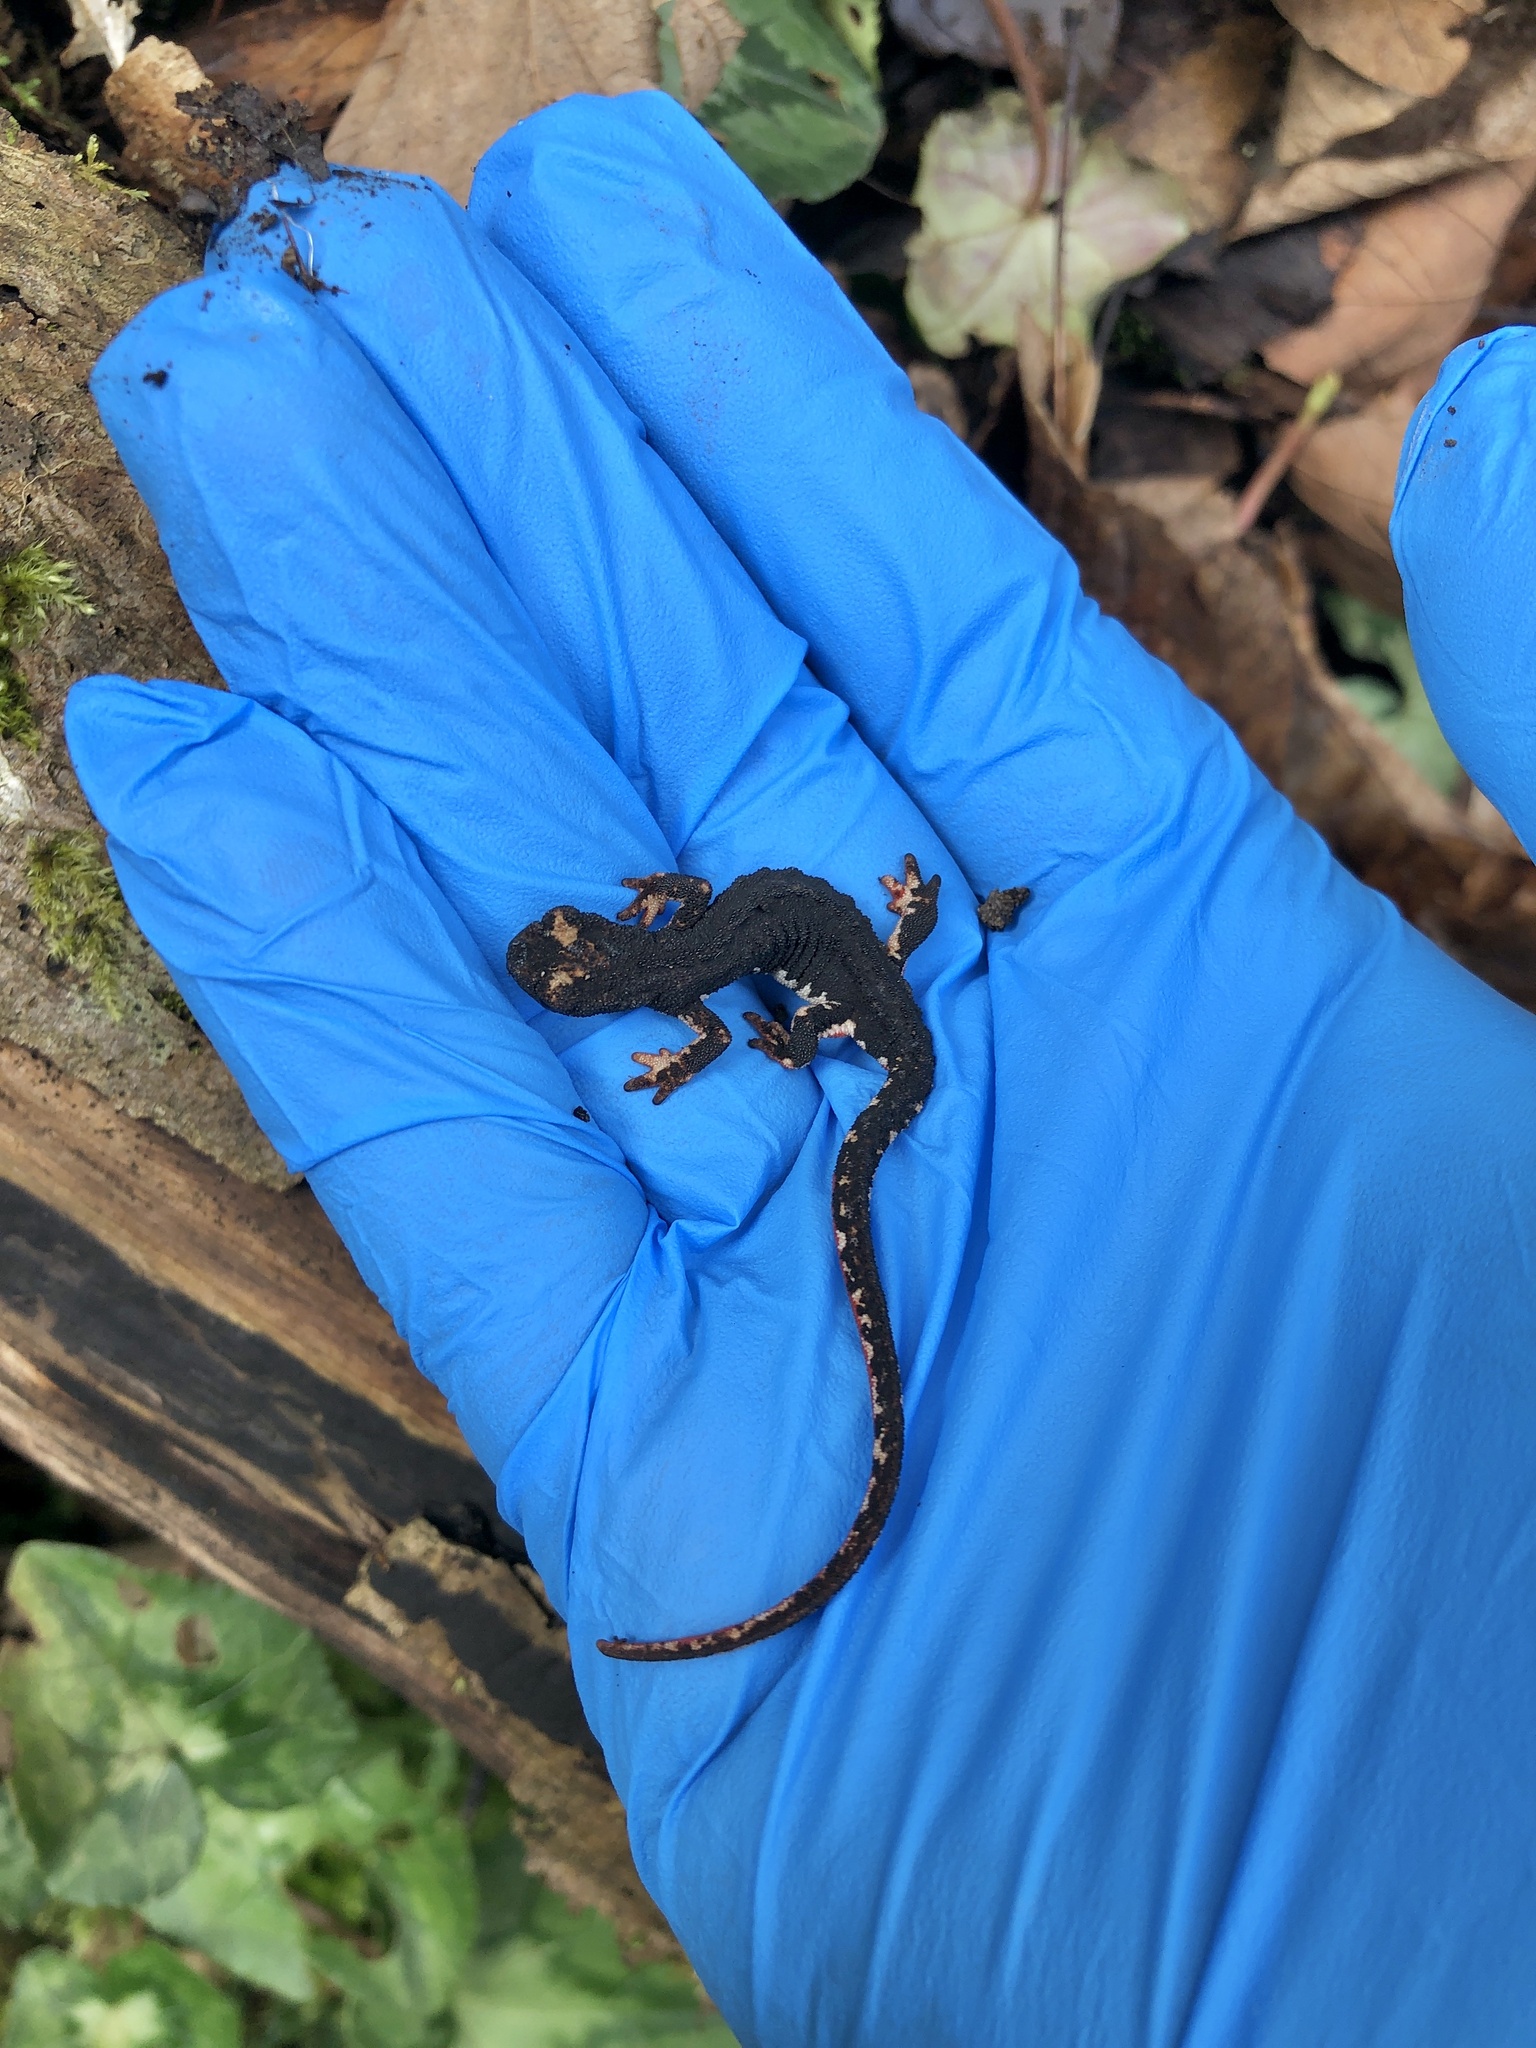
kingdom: Animalia
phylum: Chordata
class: Amphibia
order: Caudata
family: Salamandridae
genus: Salamandrina
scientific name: Salamandrina perspicillata
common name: Northern spectacled salamander
